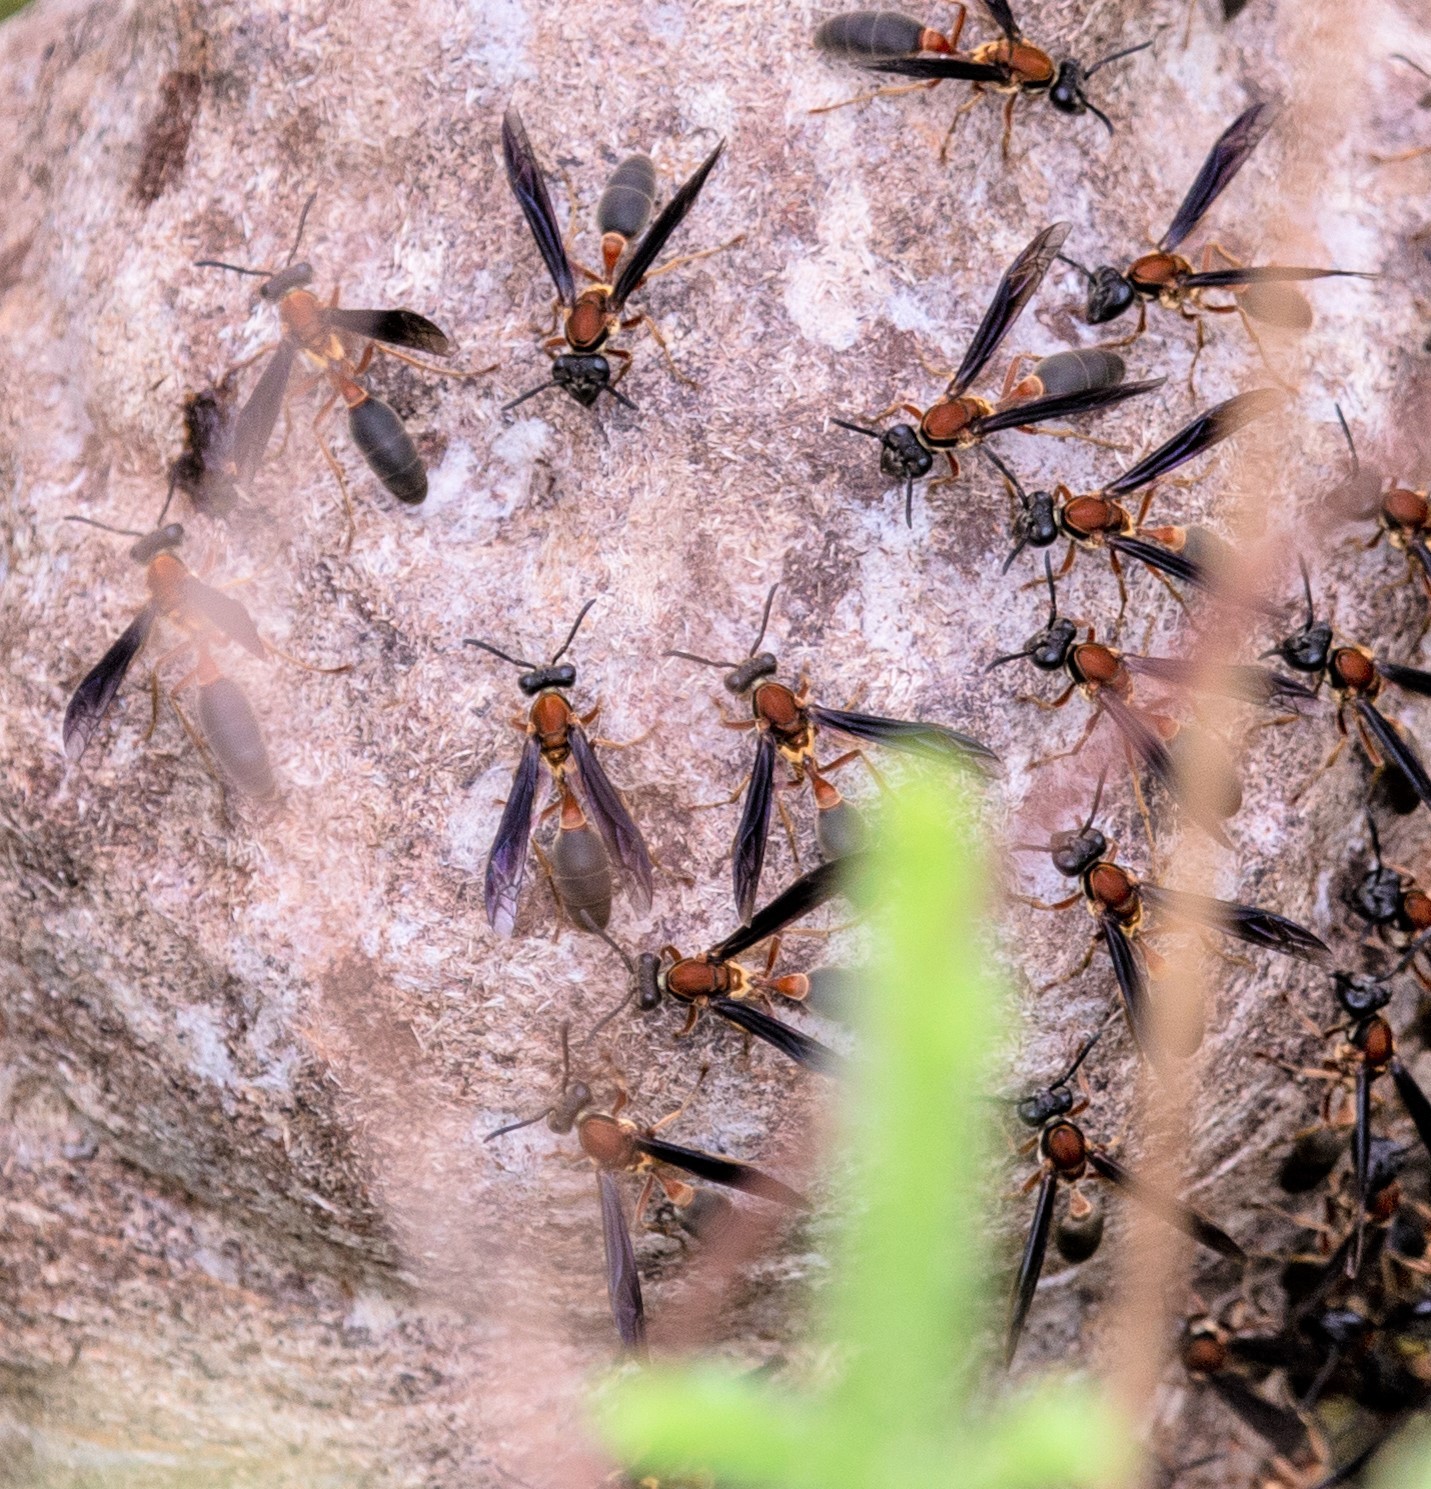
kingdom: Animalia
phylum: Arthropoda
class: Insecta
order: Hymenoptera
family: Eumenidae
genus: Polybia
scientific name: Polybia sericea
